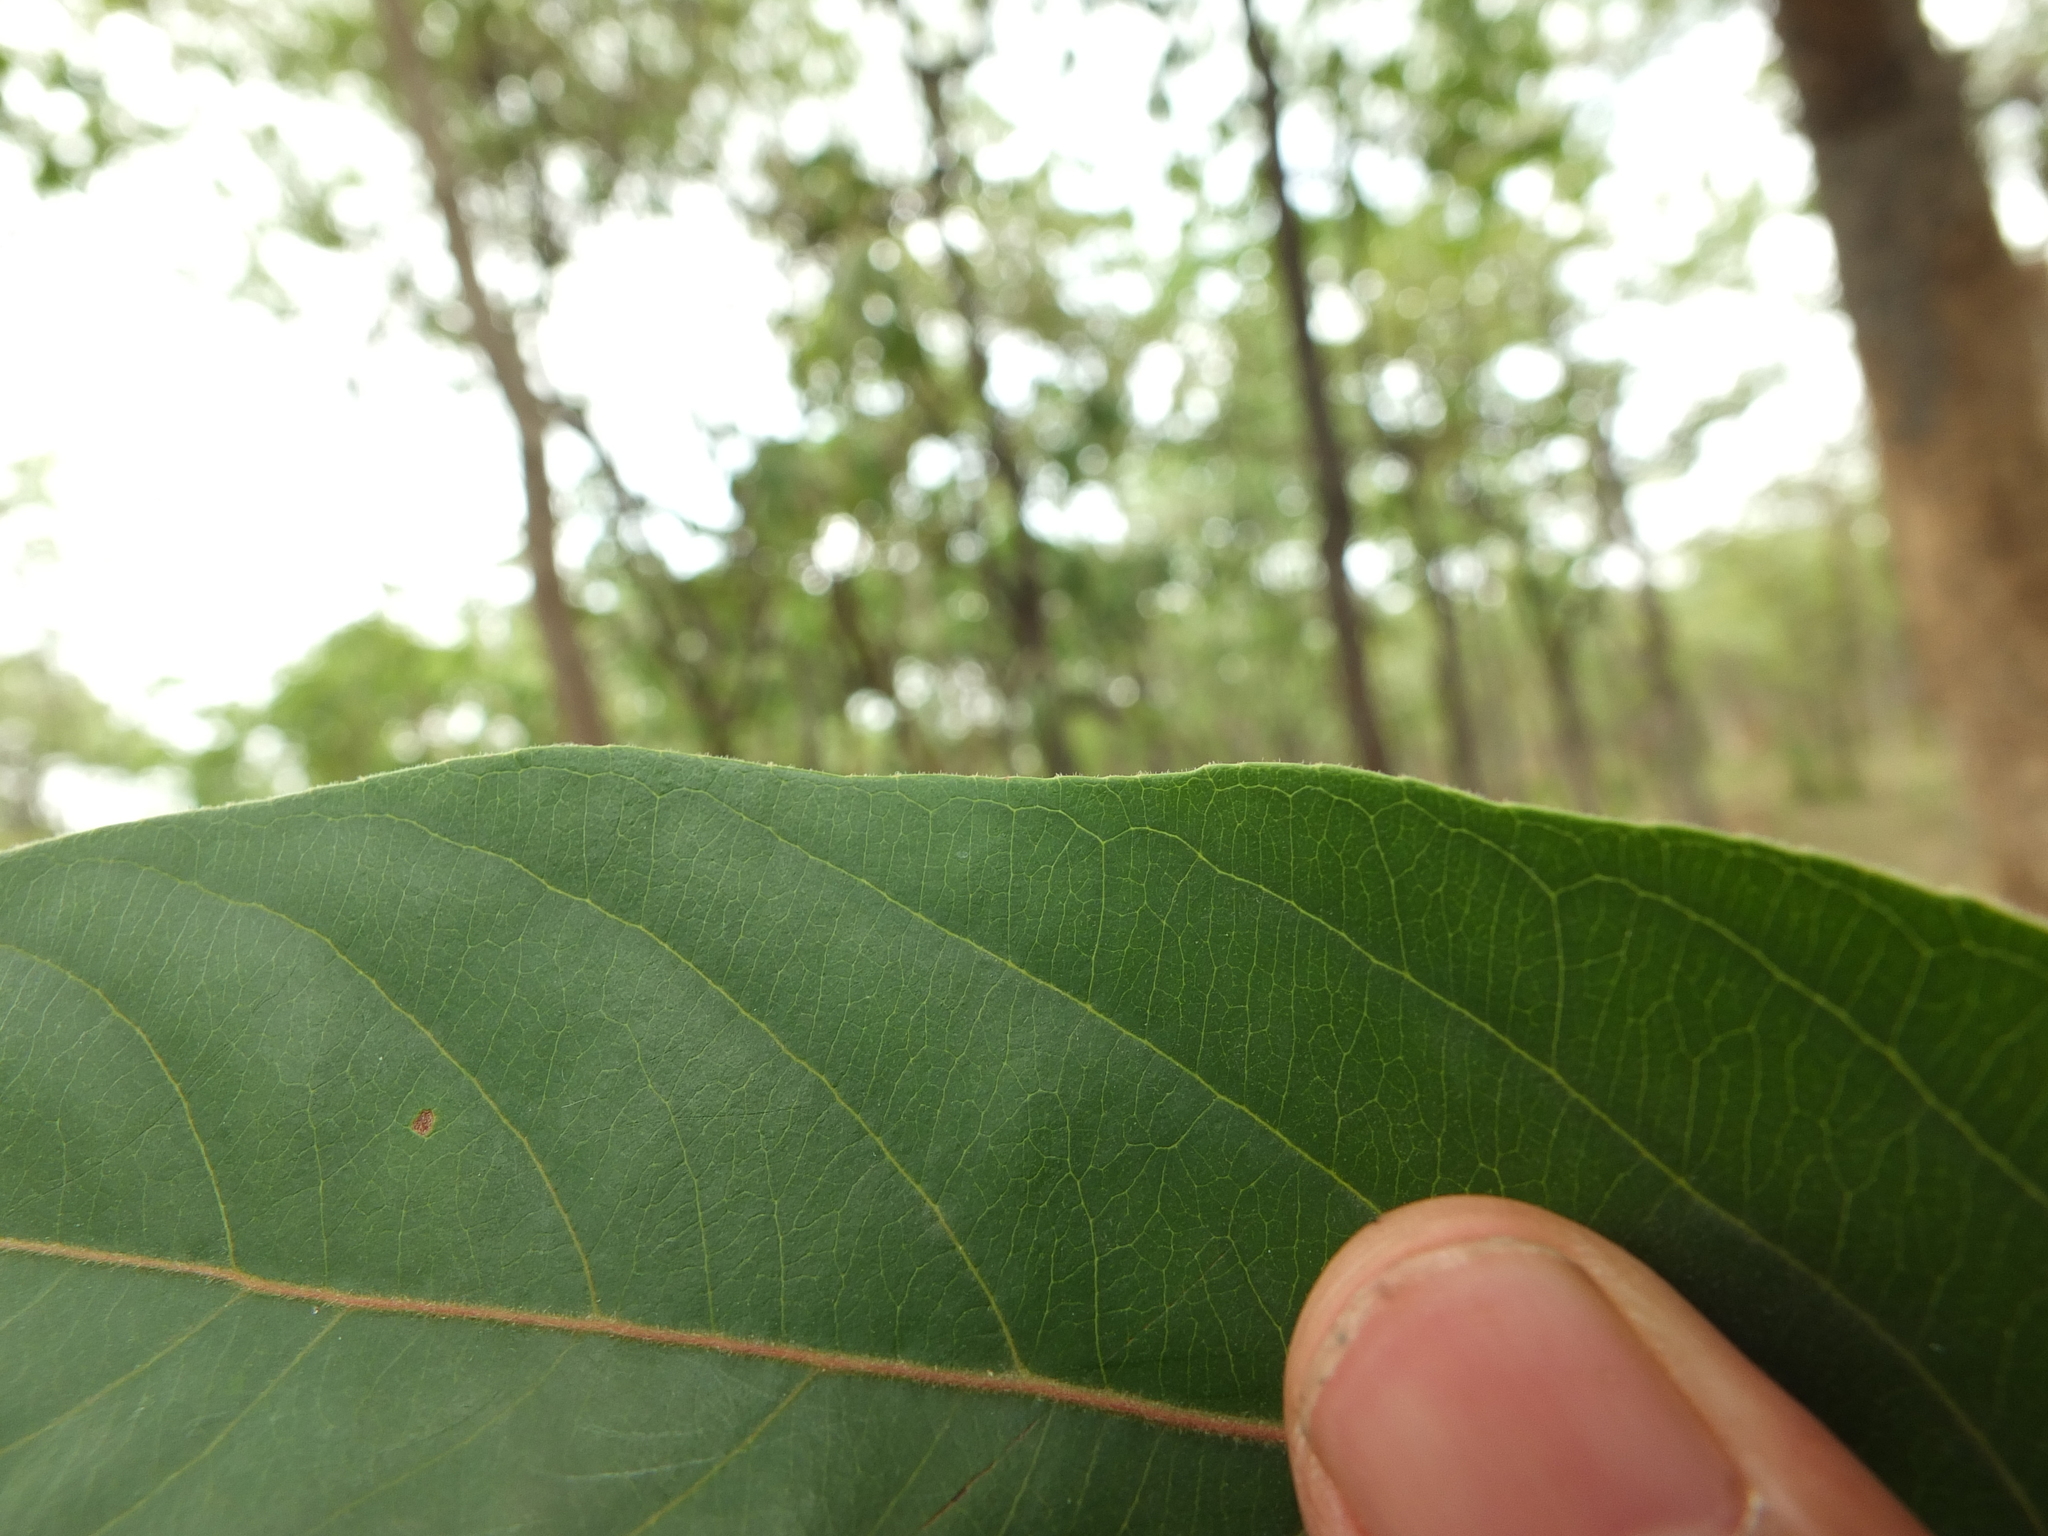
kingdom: Plantae
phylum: Tracheophyta
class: Magnoliopsida
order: Malpighiales
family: Salicaceae
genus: Casearia
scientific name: Casearia tomentosa
